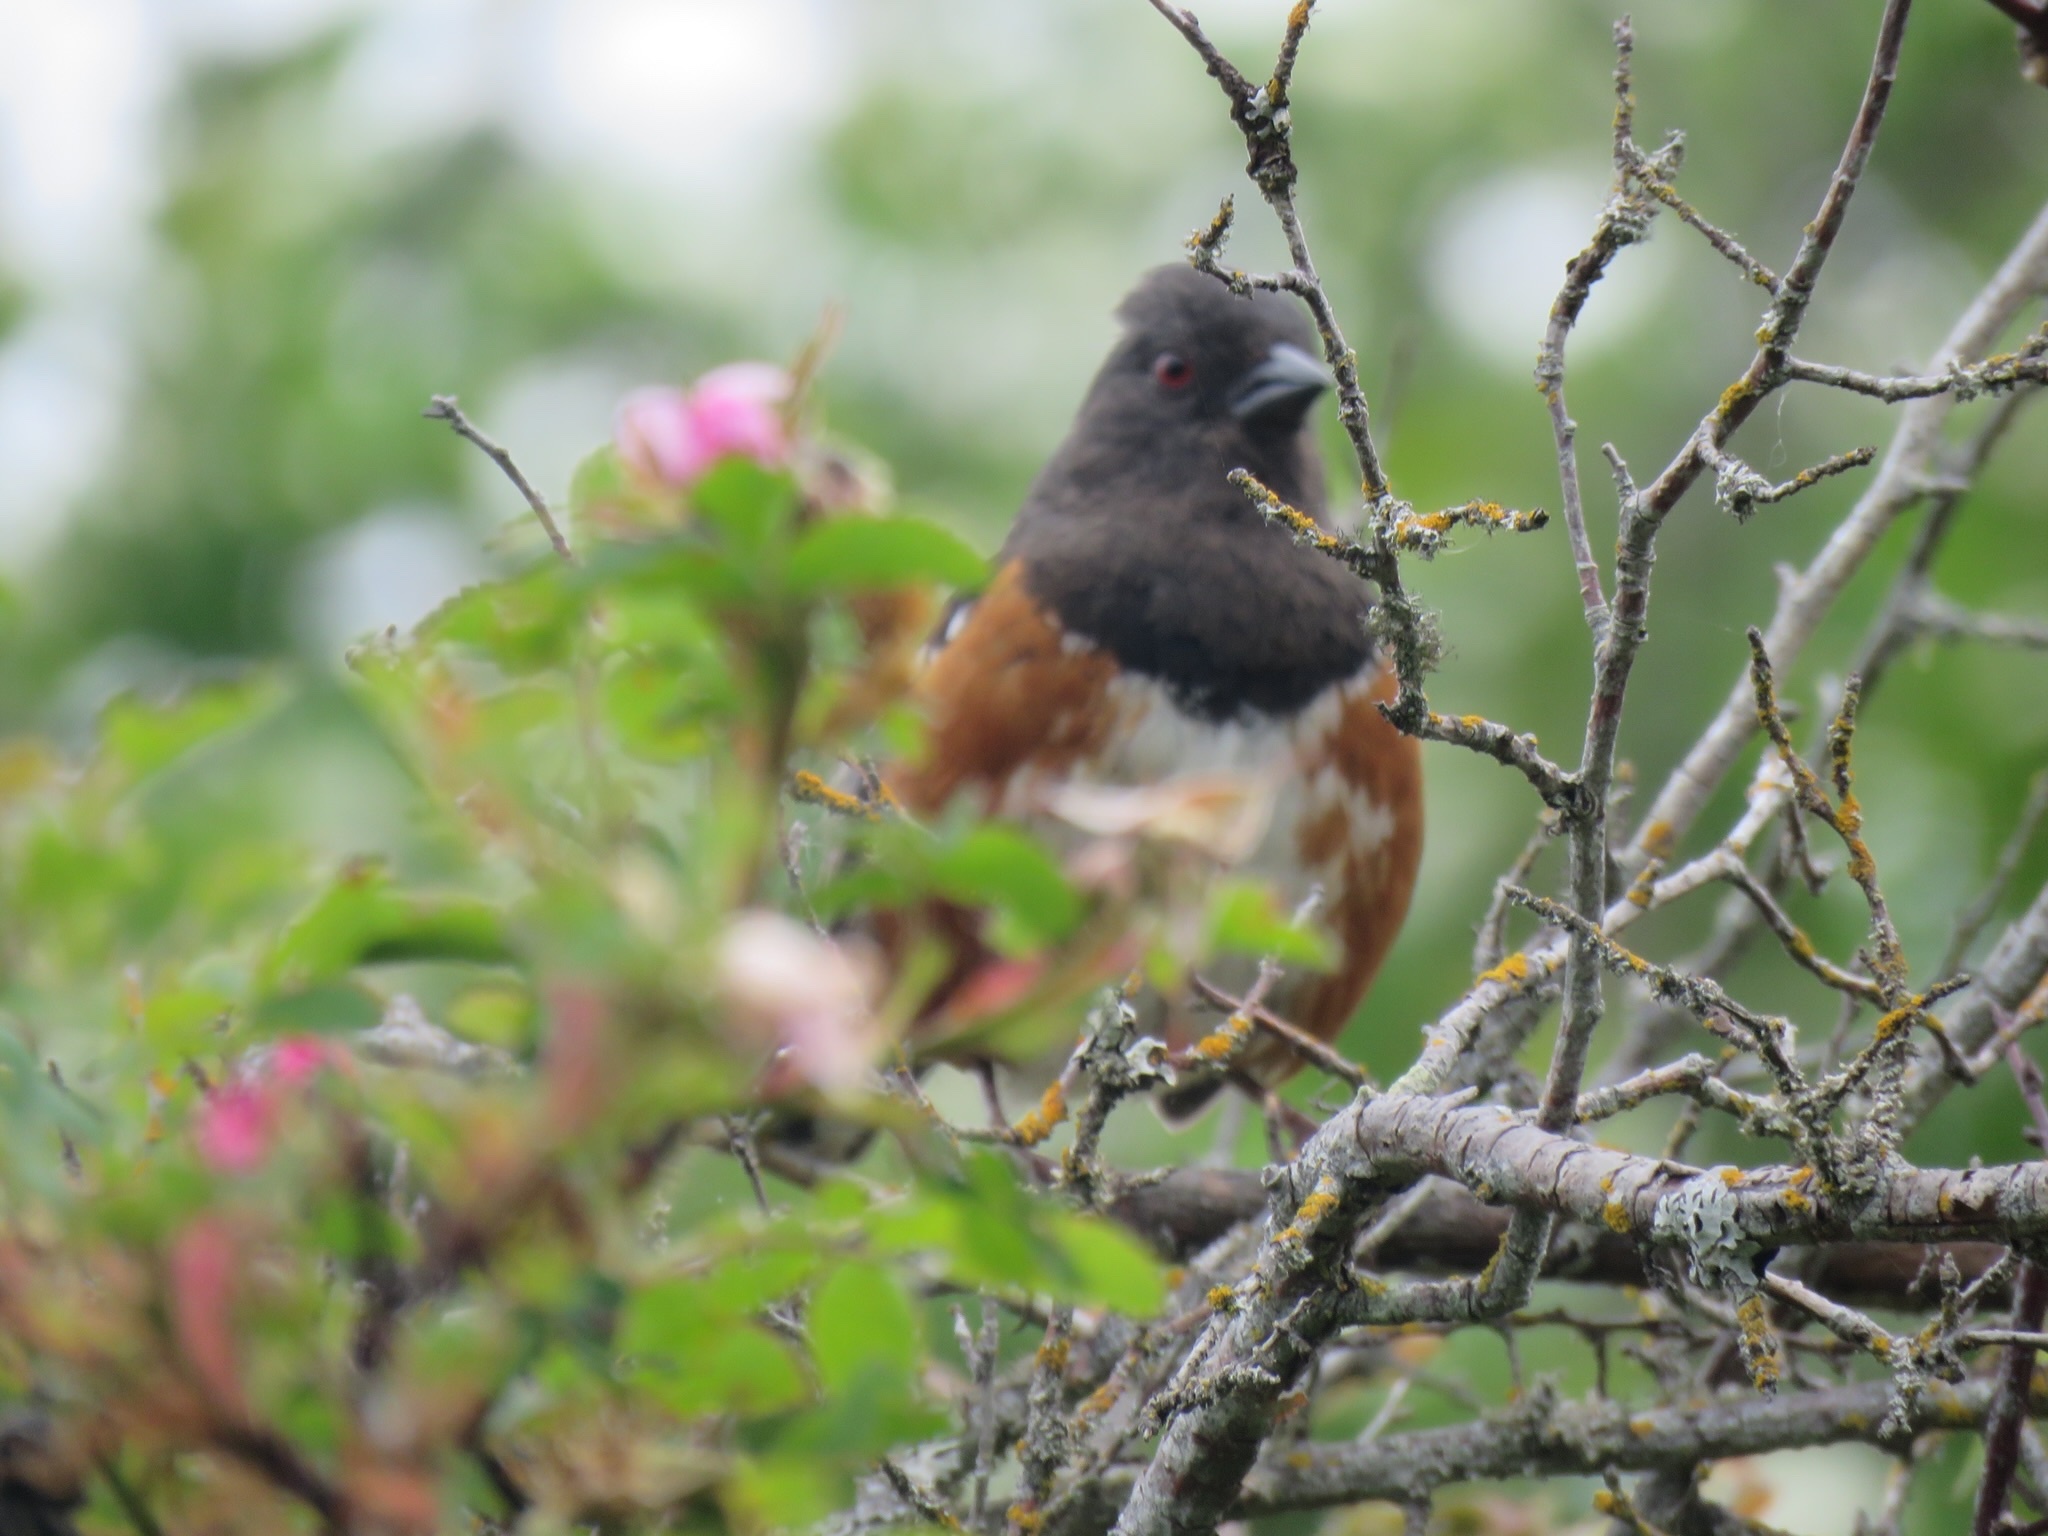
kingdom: Animalia
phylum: Chordata
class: Aves
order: Passeriformes
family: Passerellidae
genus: Pipilo
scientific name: Pipilo maculatus
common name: Spotted towhee
